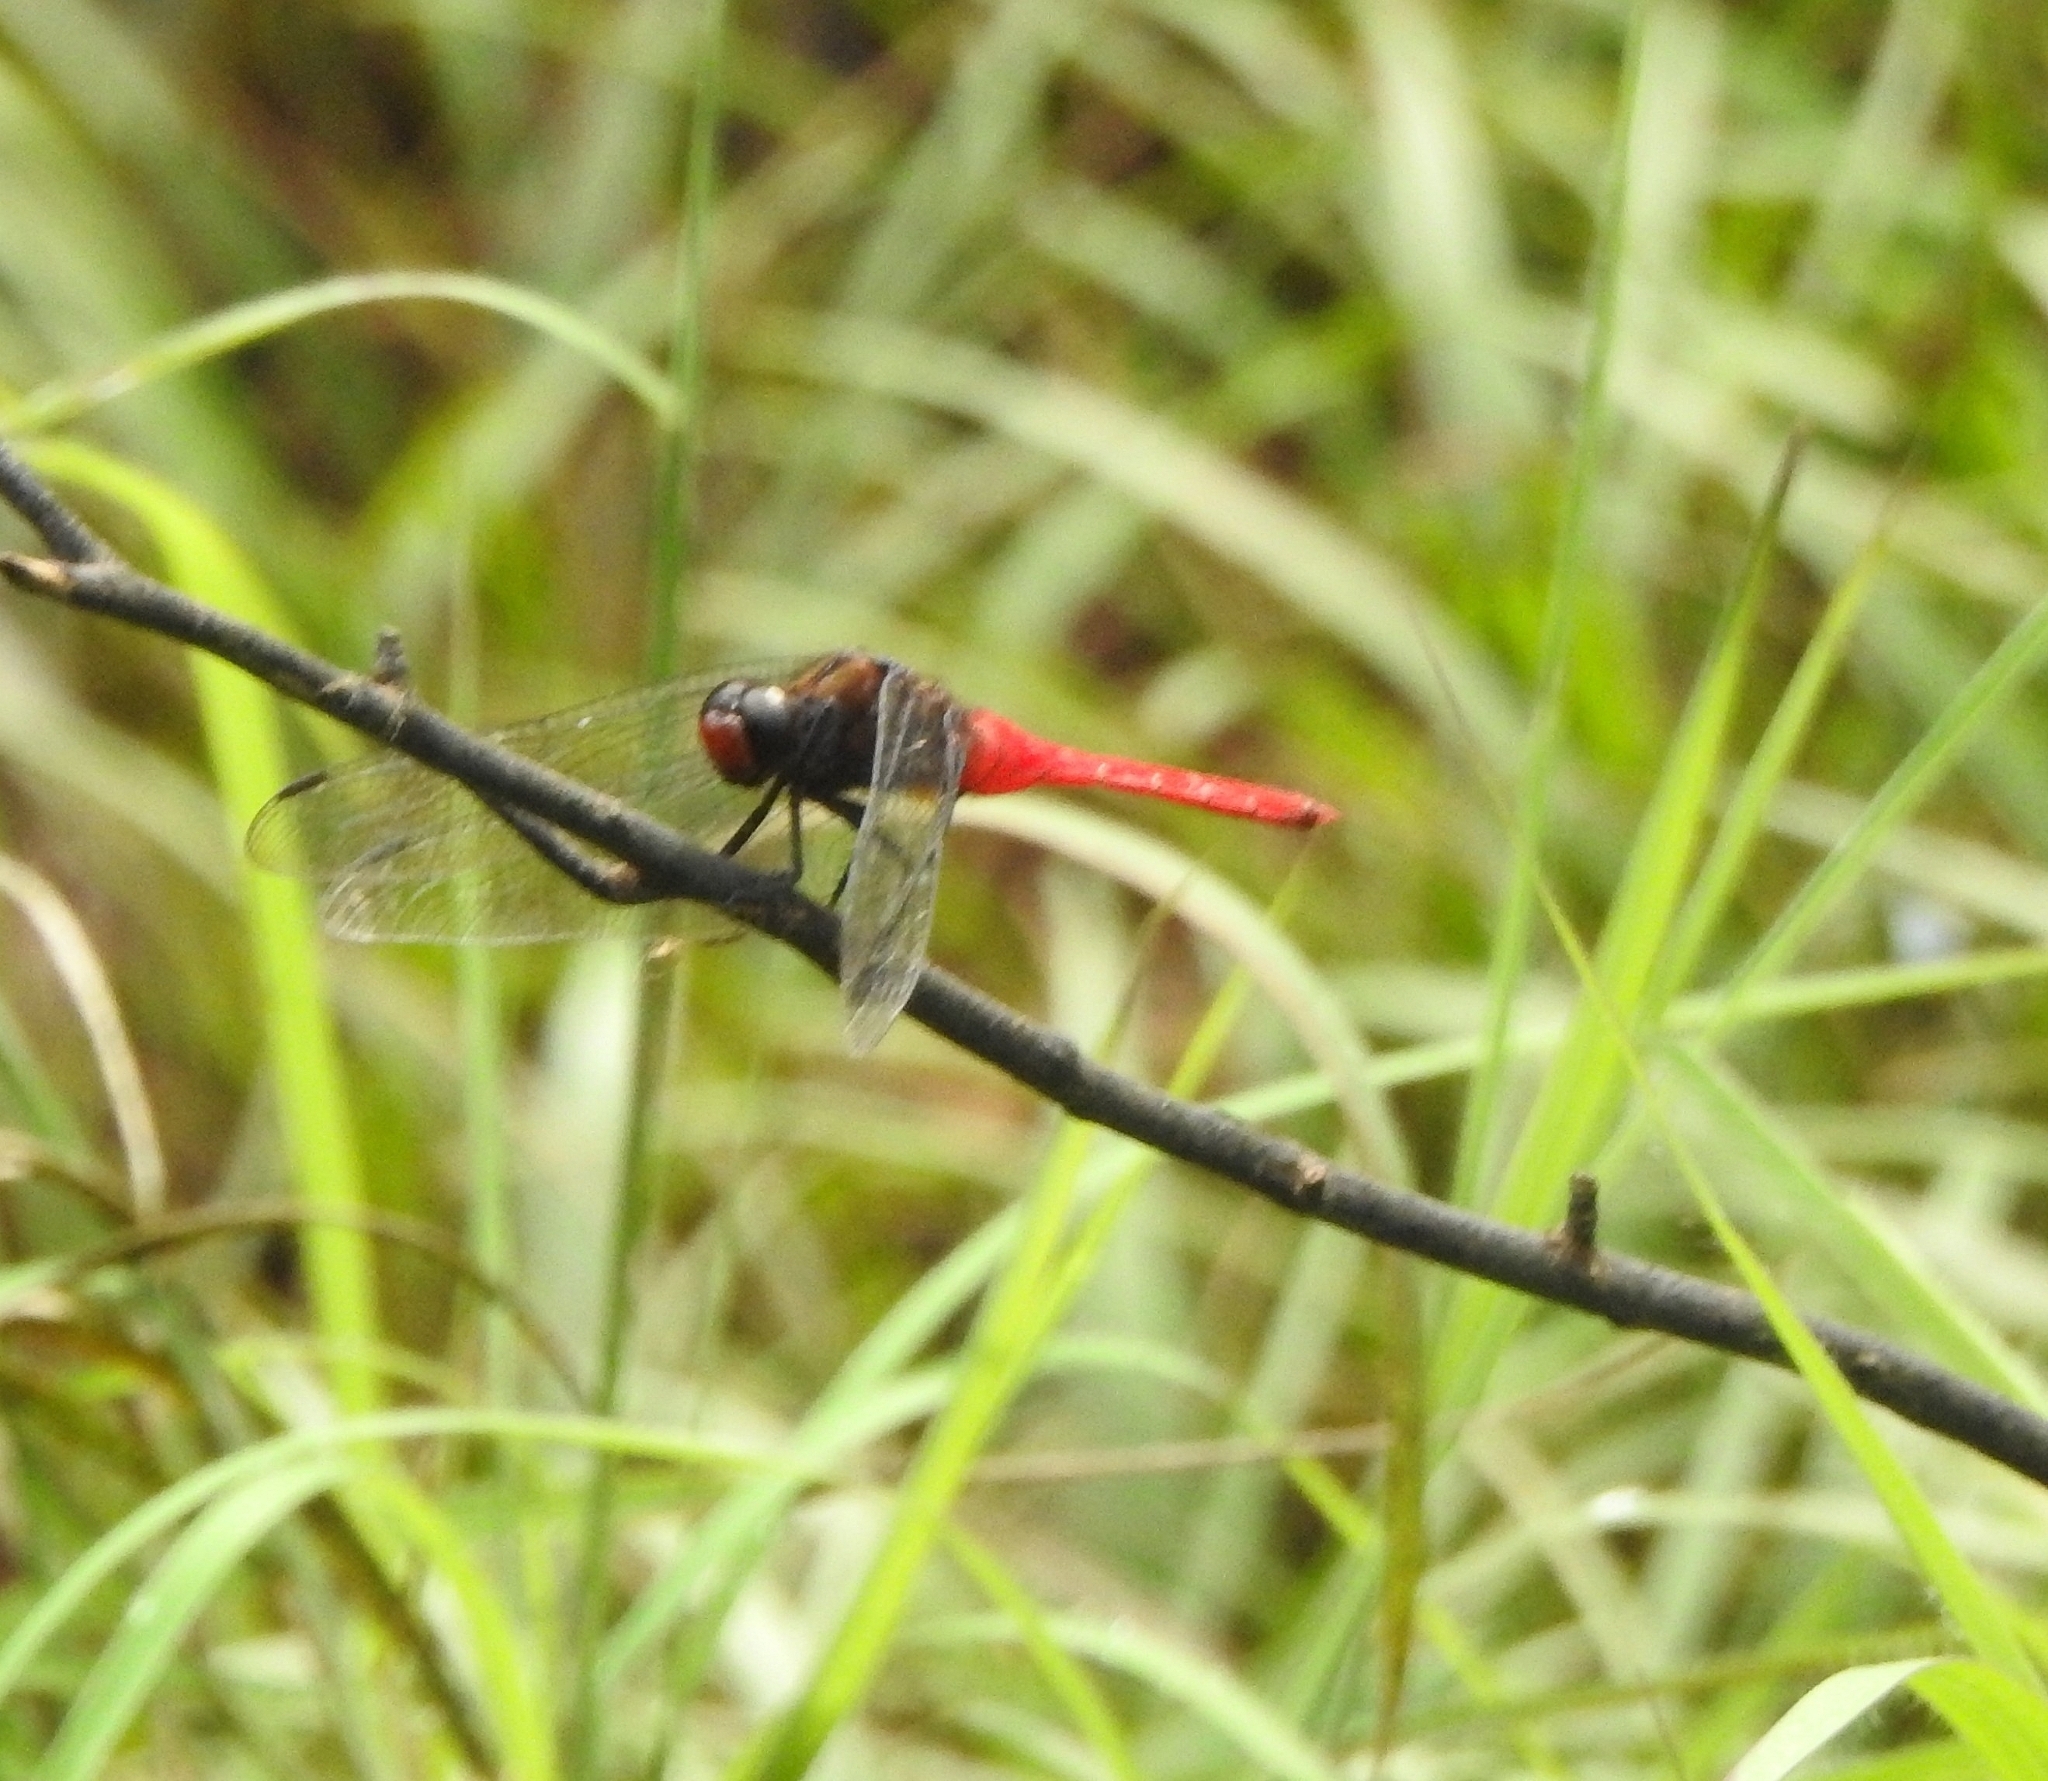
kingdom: Animalia
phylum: Arthropoda
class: Insecta
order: Odonata
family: Libellulidae
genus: Orthetrum
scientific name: Orthetrum chrysis
